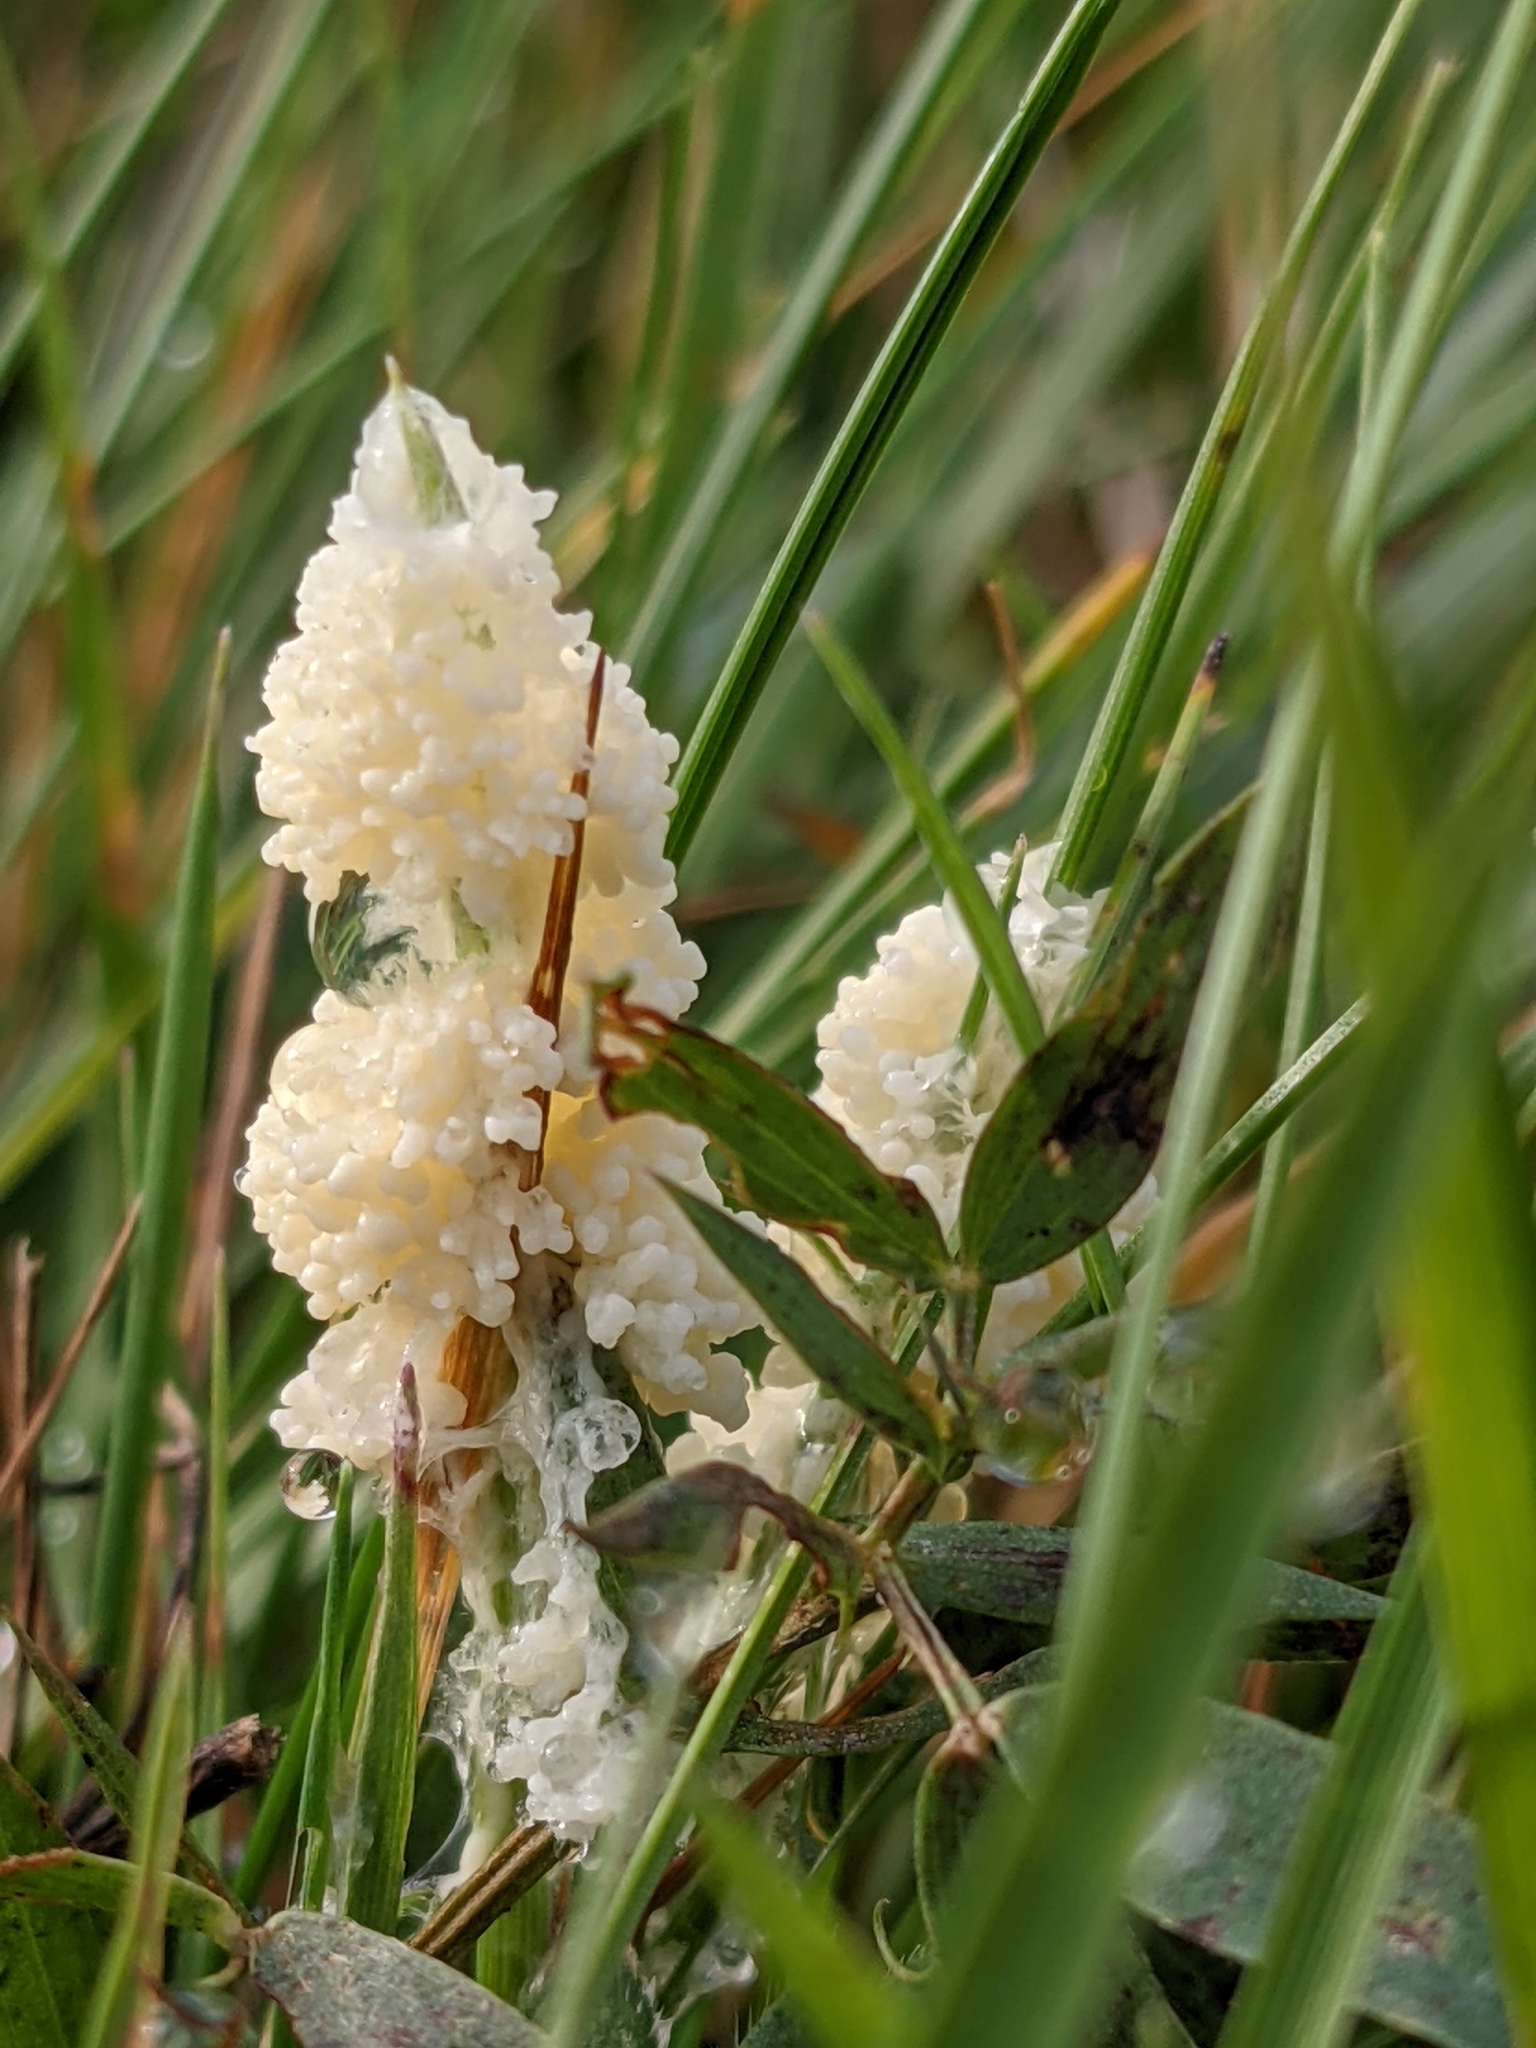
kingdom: Protozoa
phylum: Mycetozoa
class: Myxomycetes
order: Physarales
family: Physaraceae
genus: Didymium
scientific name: Didymium
